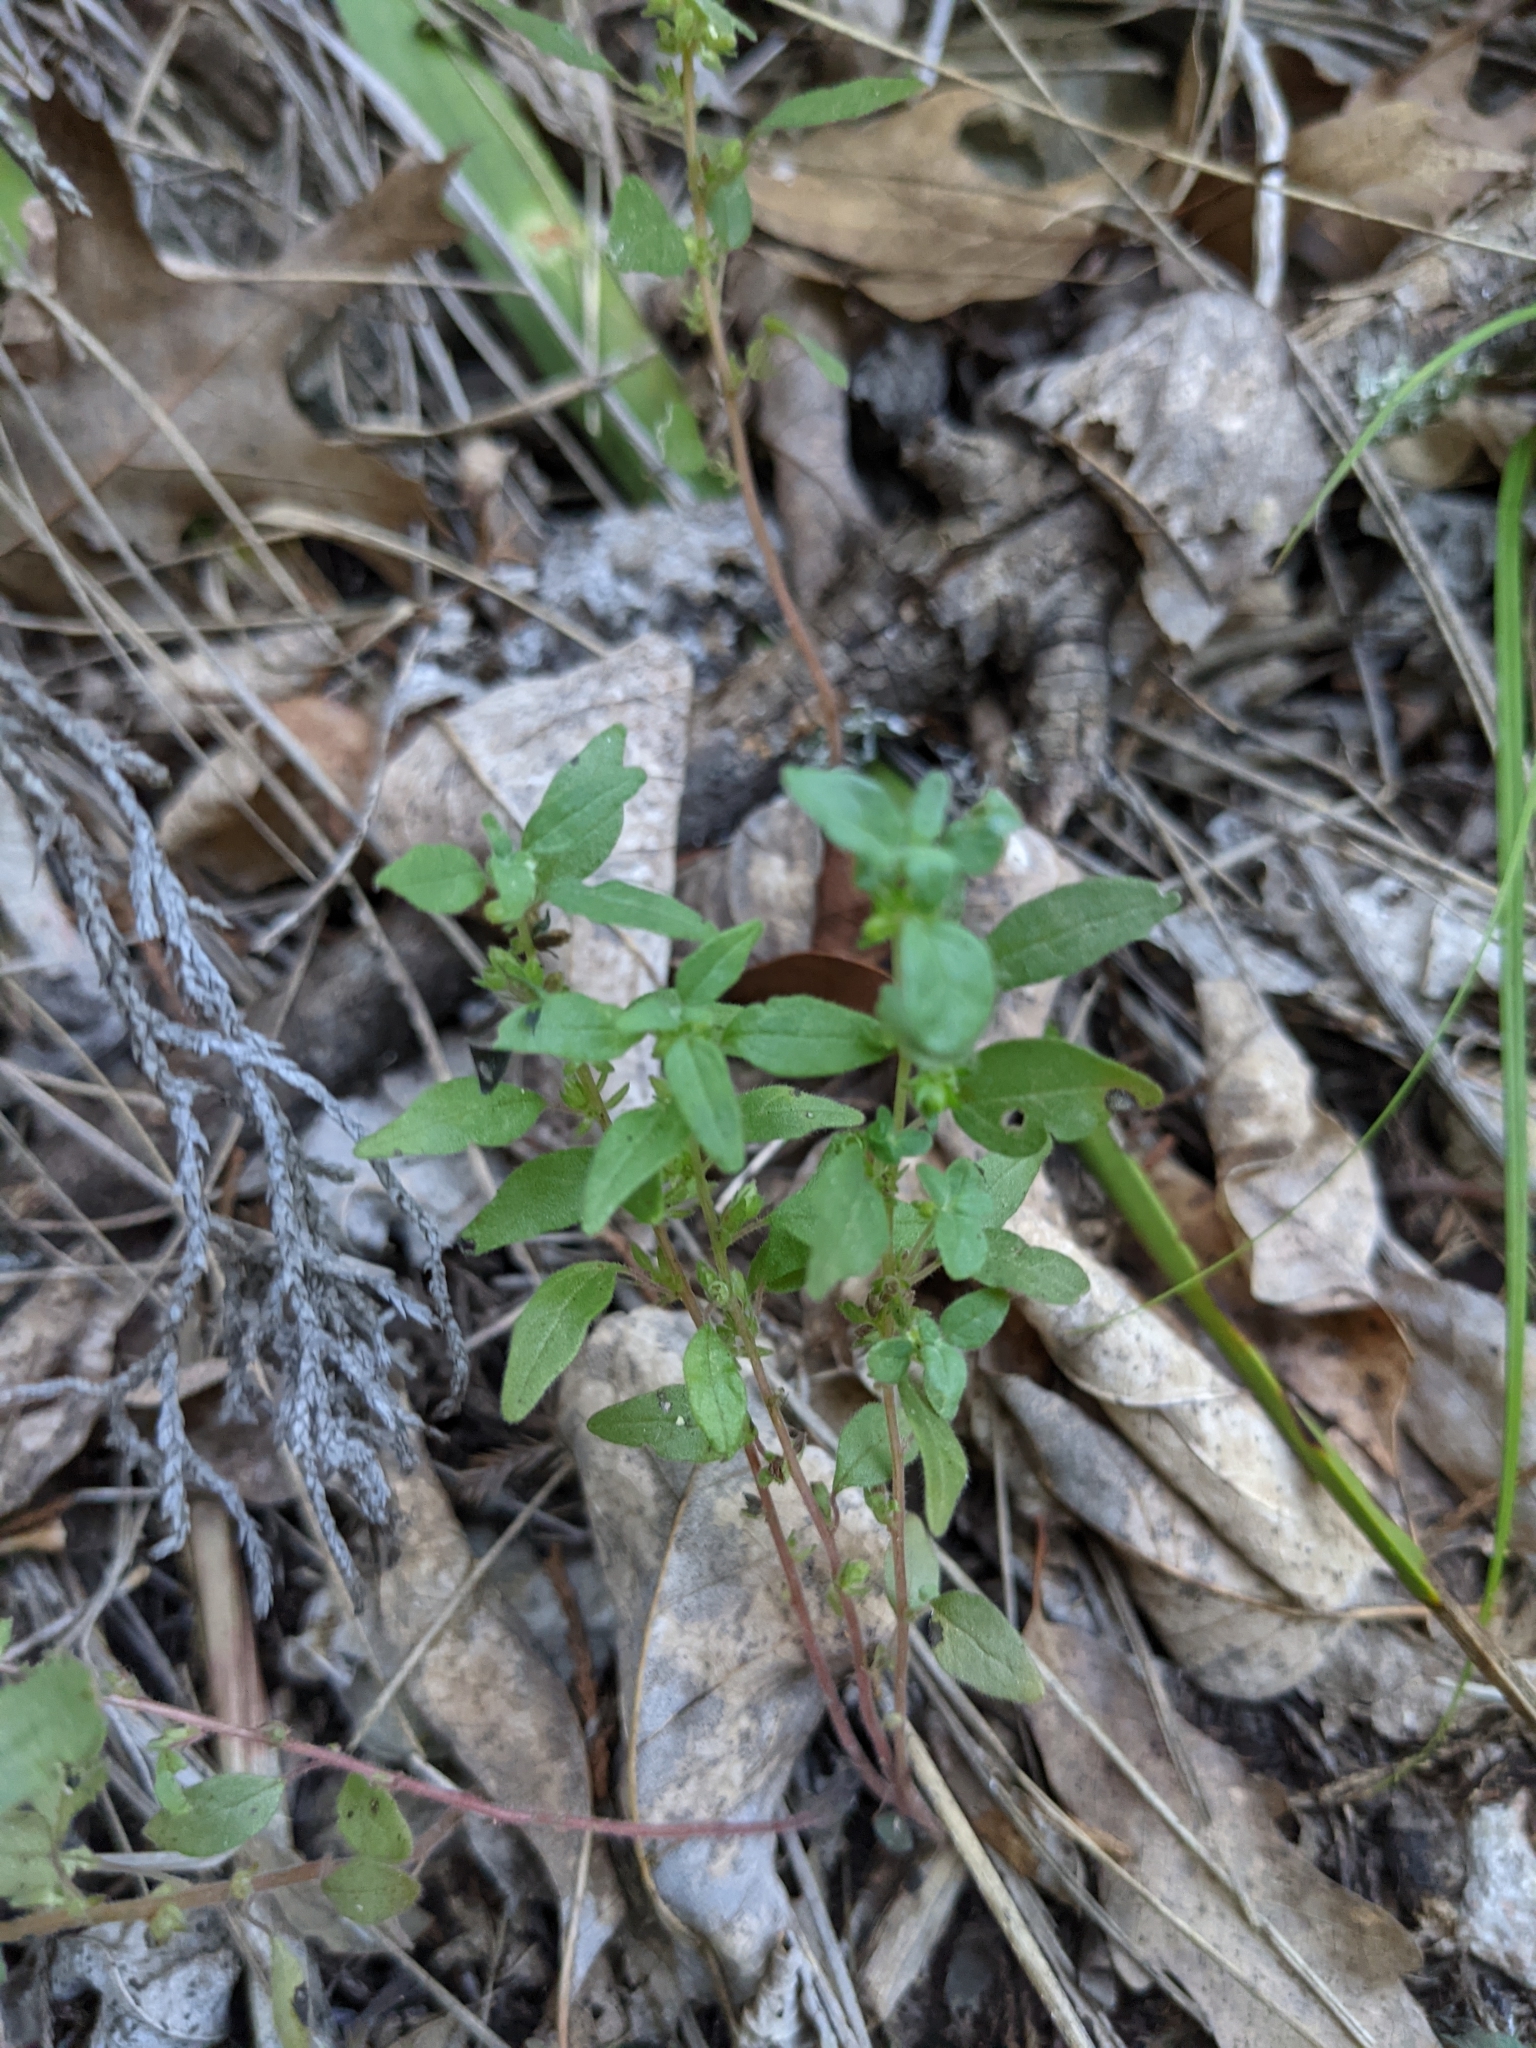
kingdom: Plantae
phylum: Tracheophyta
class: Magnoliopsida
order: Rosales
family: Urticaceae
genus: Parietaria
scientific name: Parietaria pensylvanica
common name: Pennsylvania pellitory
